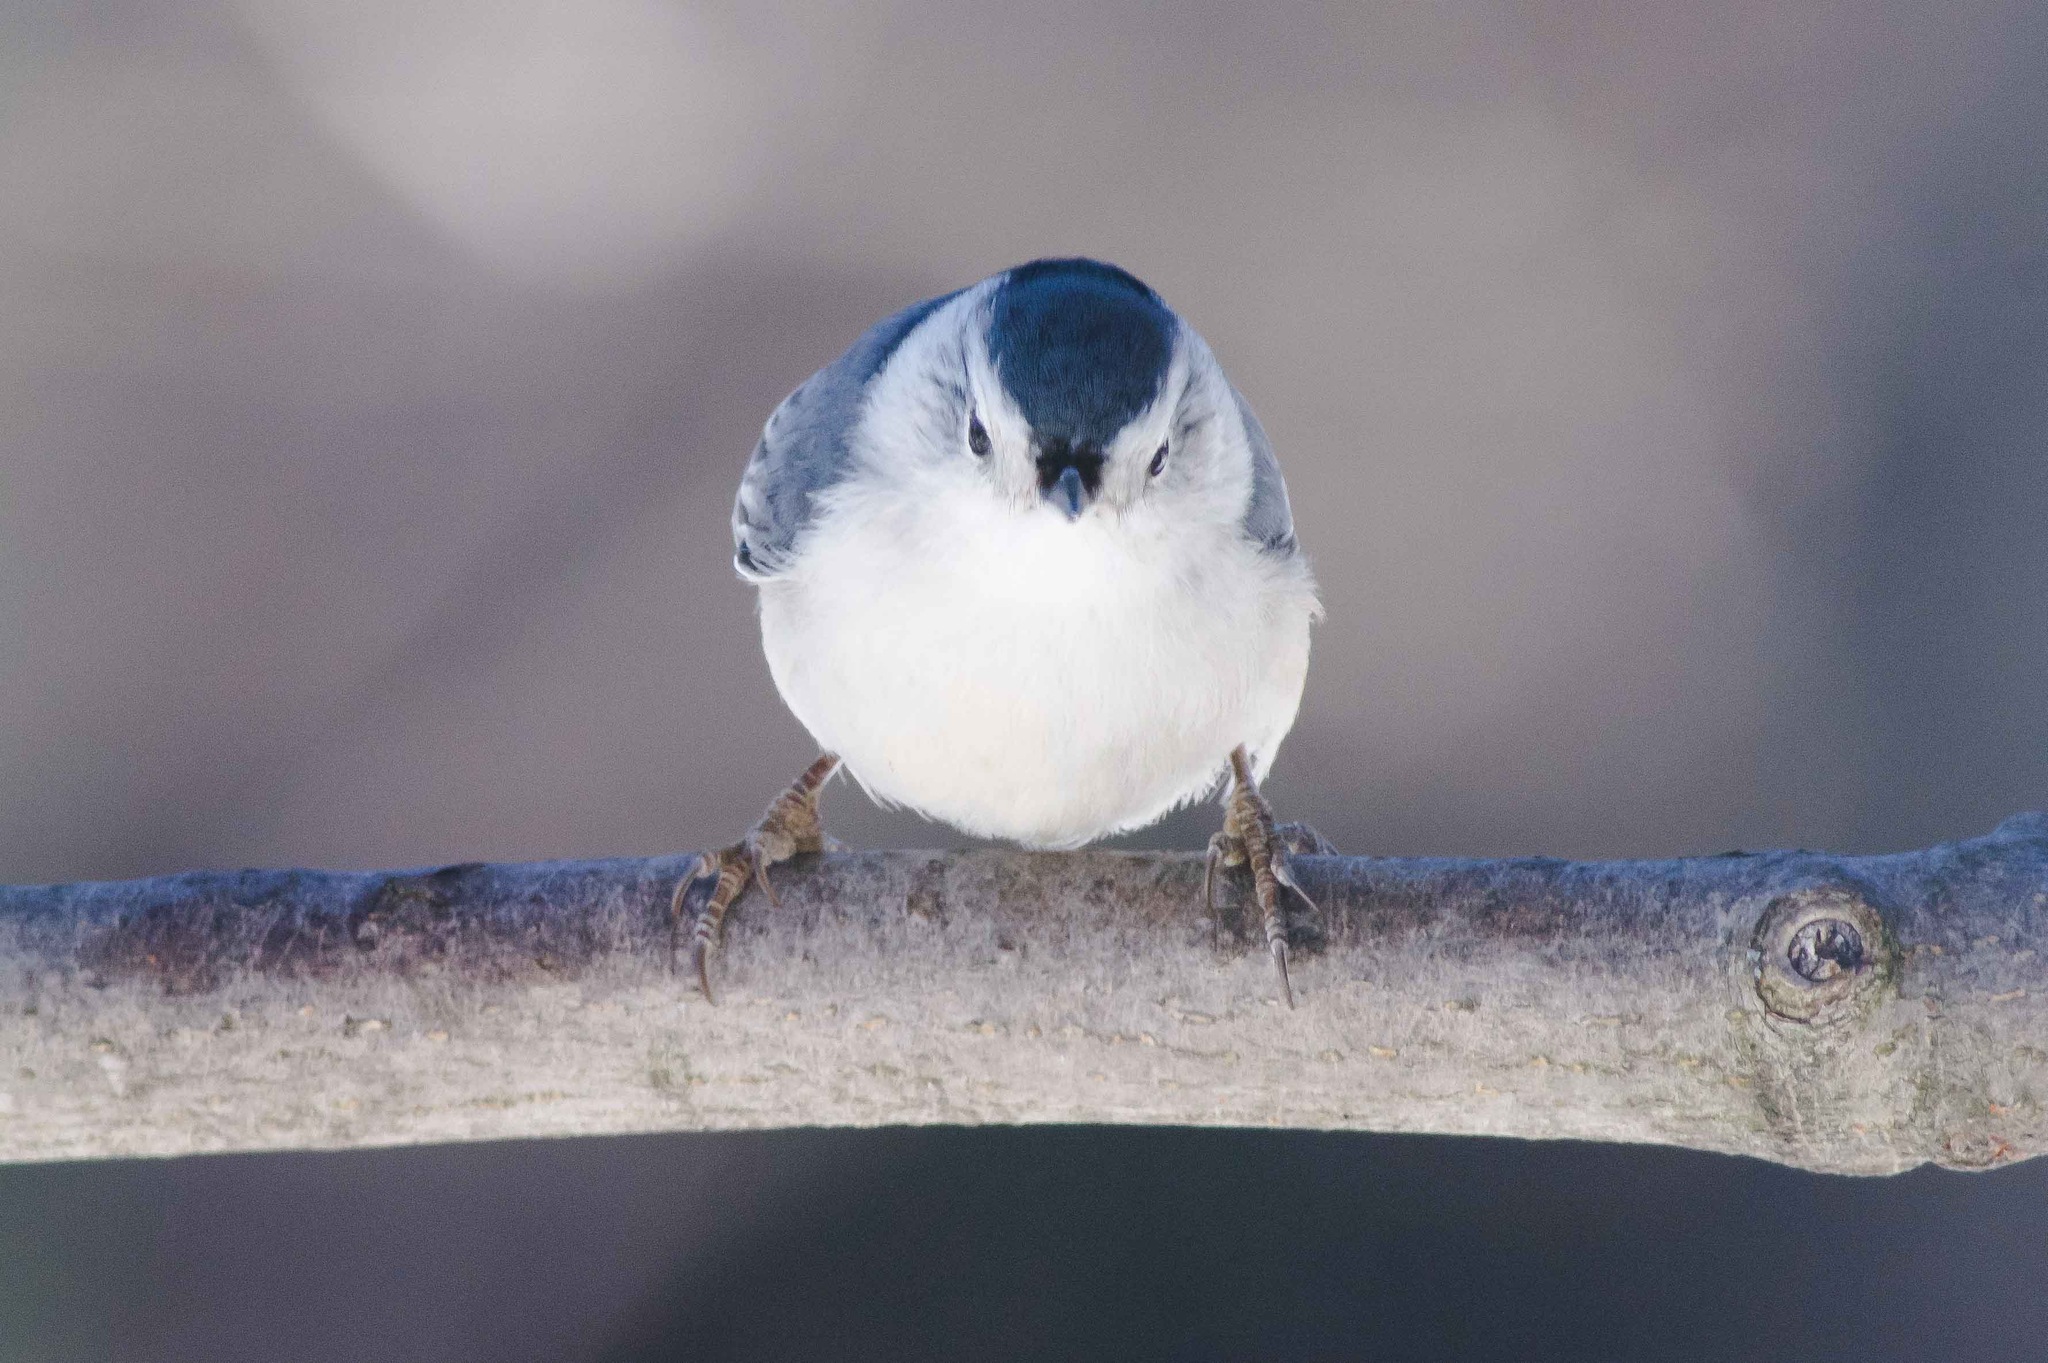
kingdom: Animalia
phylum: Chordata
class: Aves
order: Passeriformes
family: Sittidae
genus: Sitta
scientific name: Sitta carolinensis
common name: White-breasted nuthatch
